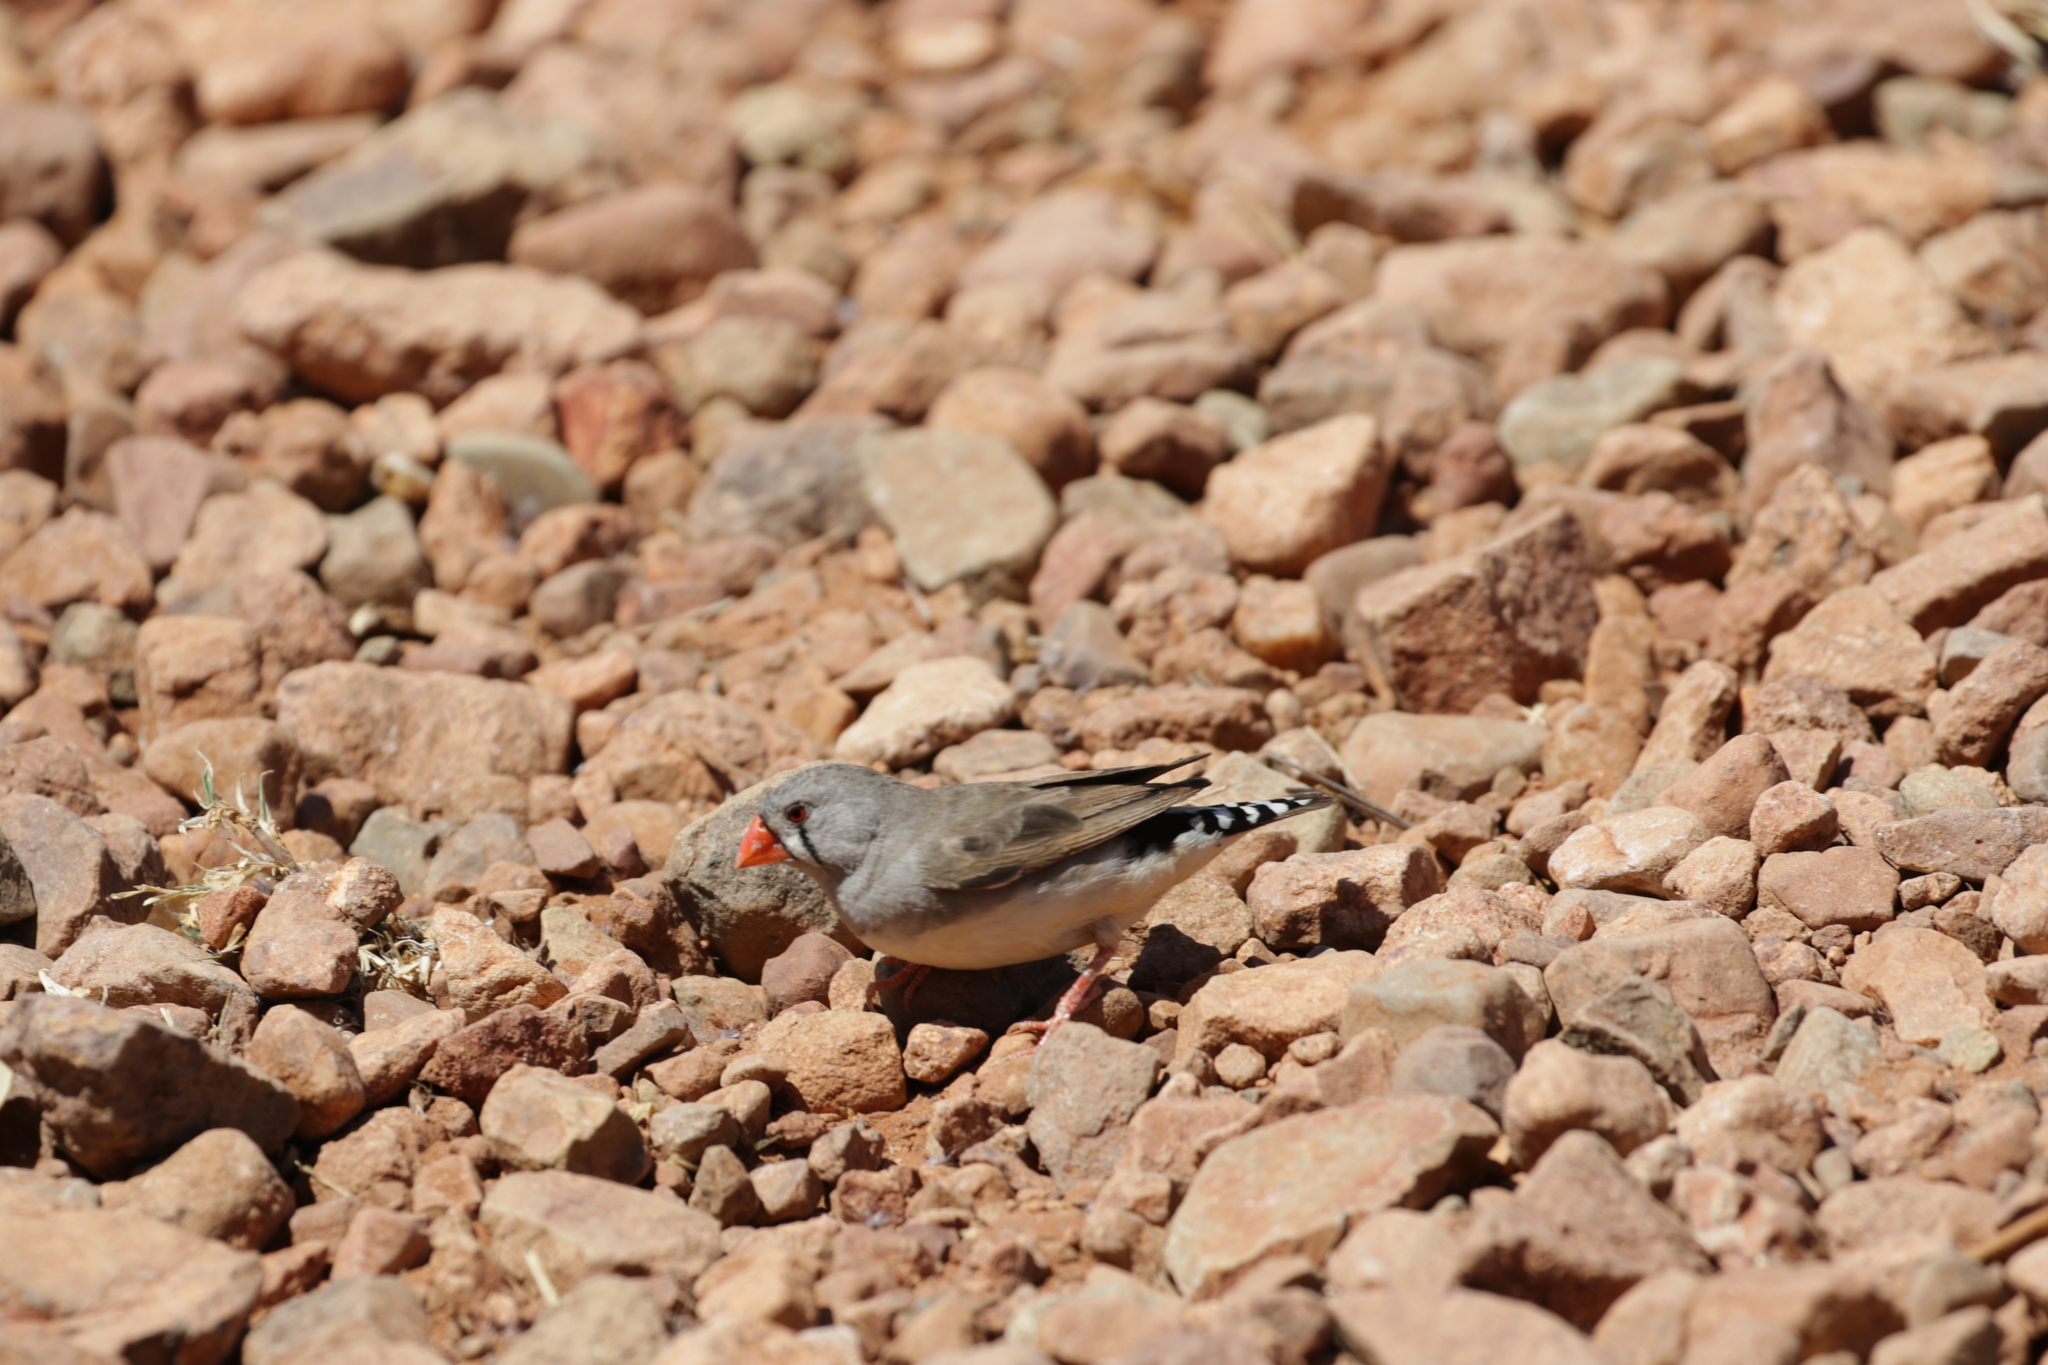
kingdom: Animalia
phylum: Chordata
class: Aves
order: Passeriformes
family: Estrildidae
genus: Taeniopygia
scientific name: Taeniopygia guttata
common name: Zebra finch
